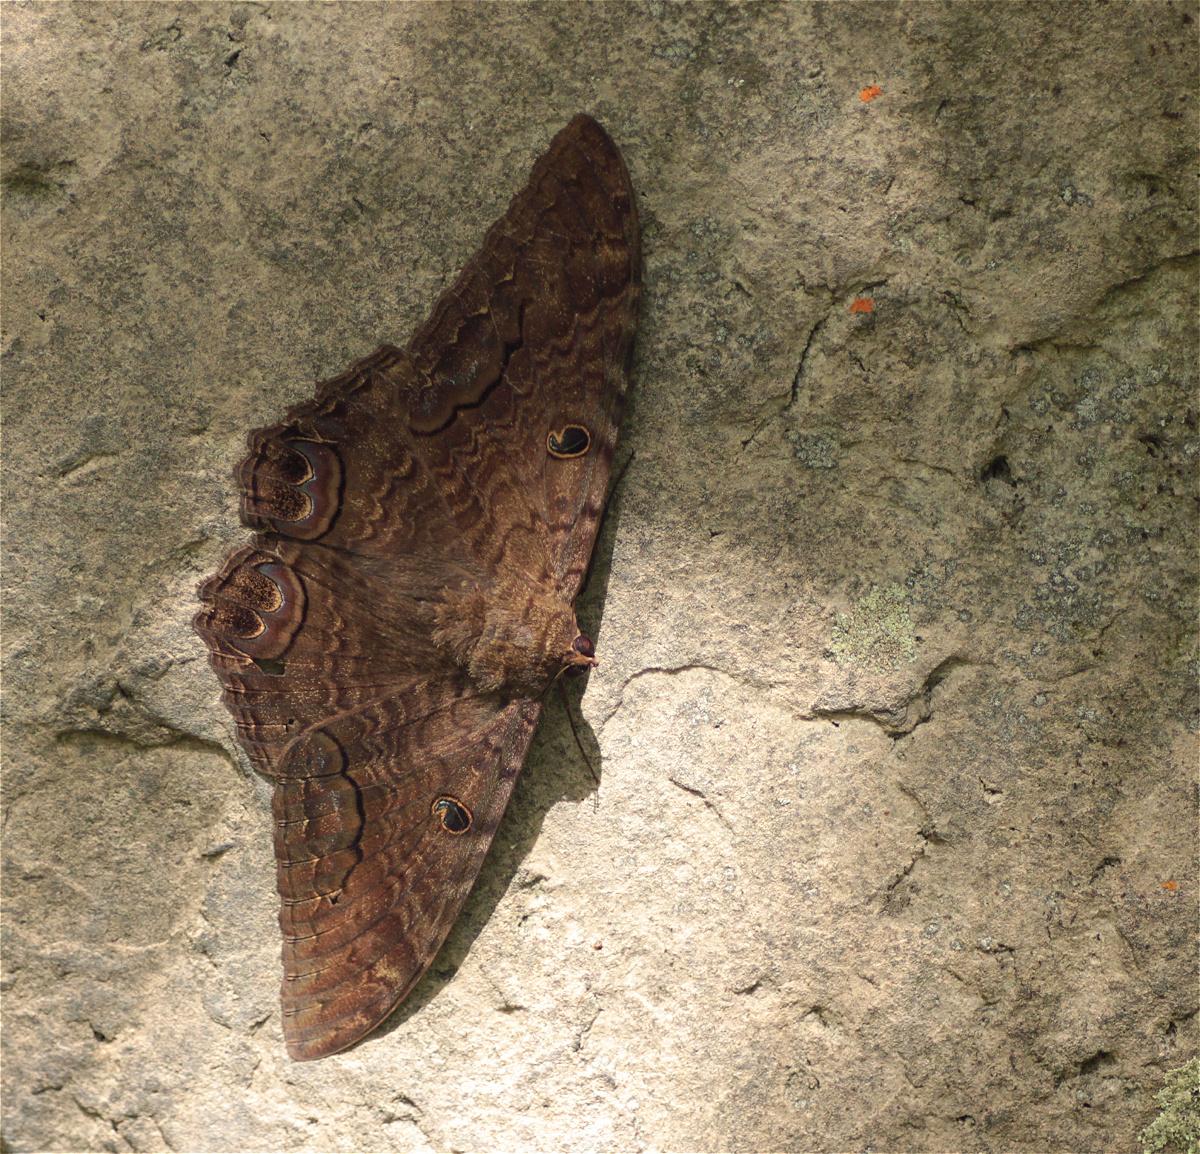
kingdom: Animalia
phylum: Arthropoda
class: Insecta
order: Lepidoptera
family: Erebidae
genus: Ascalapha
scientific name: Ascalapha odorata
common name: Black witch
